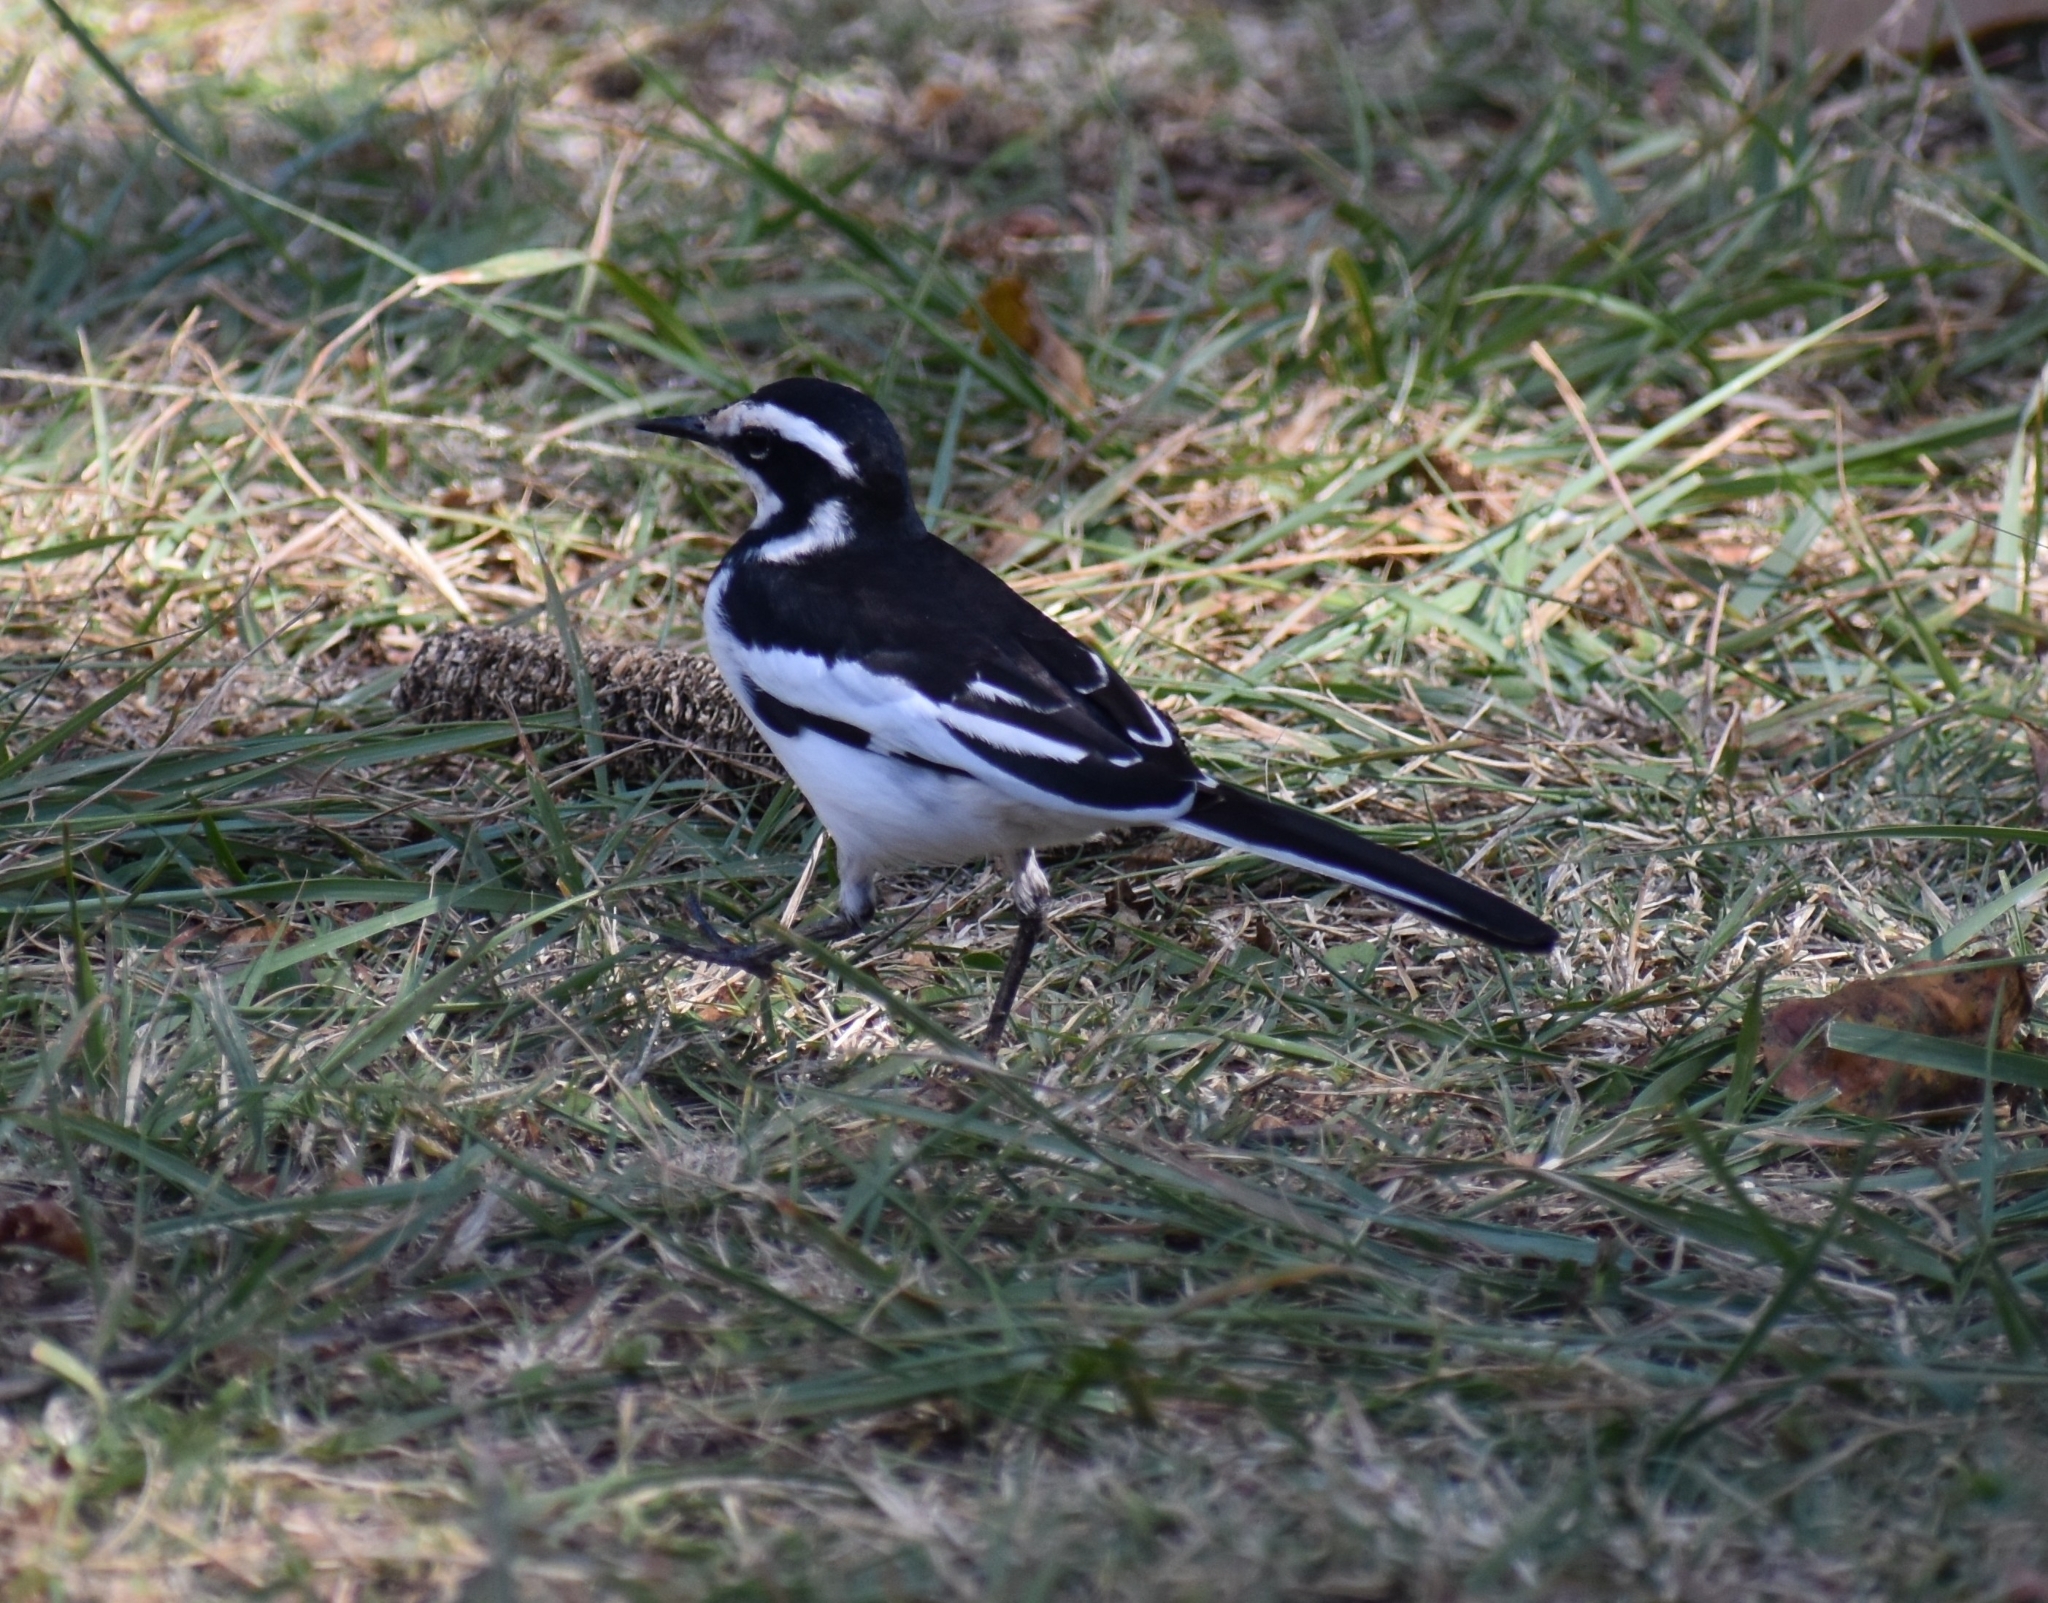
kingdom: Animalia
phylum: Chordata
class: Aves
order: Passeriformes
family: Motacillidae
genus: Motacilla
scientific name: Motacilla aguimp
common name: African pied wagtail
